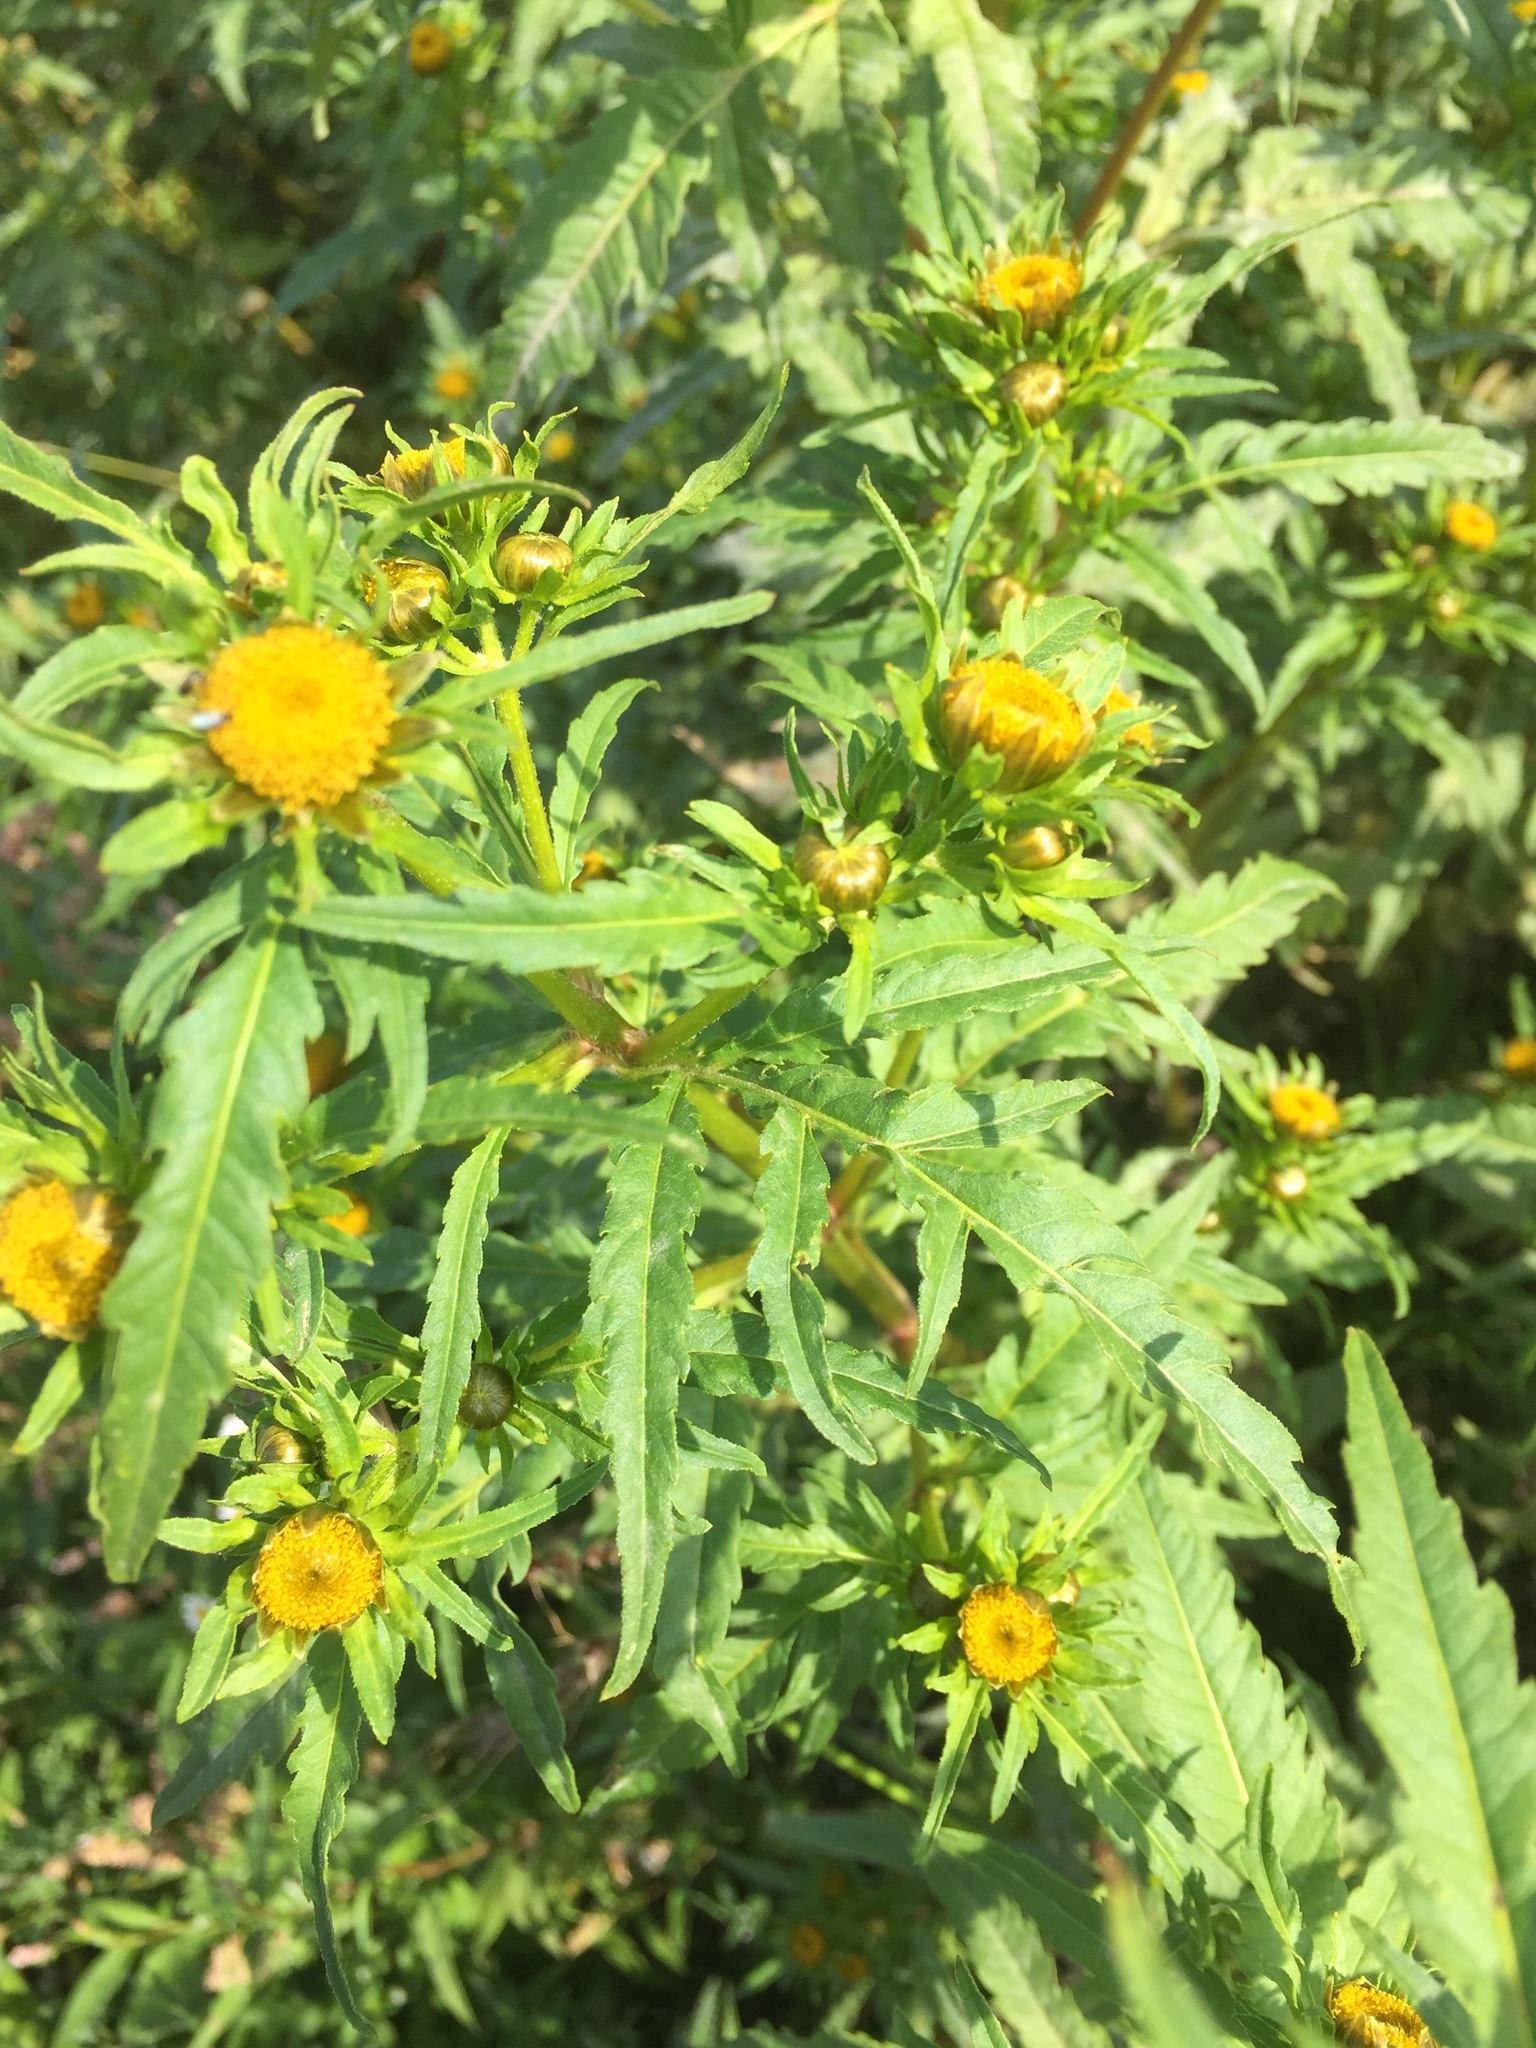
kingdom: Plantae
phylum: Tracheophyta
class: Magnoliopsida
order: Asterales
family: Asteraceae
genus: Bidens
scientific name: Bidens radiata
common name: Radiating bur-marigold
